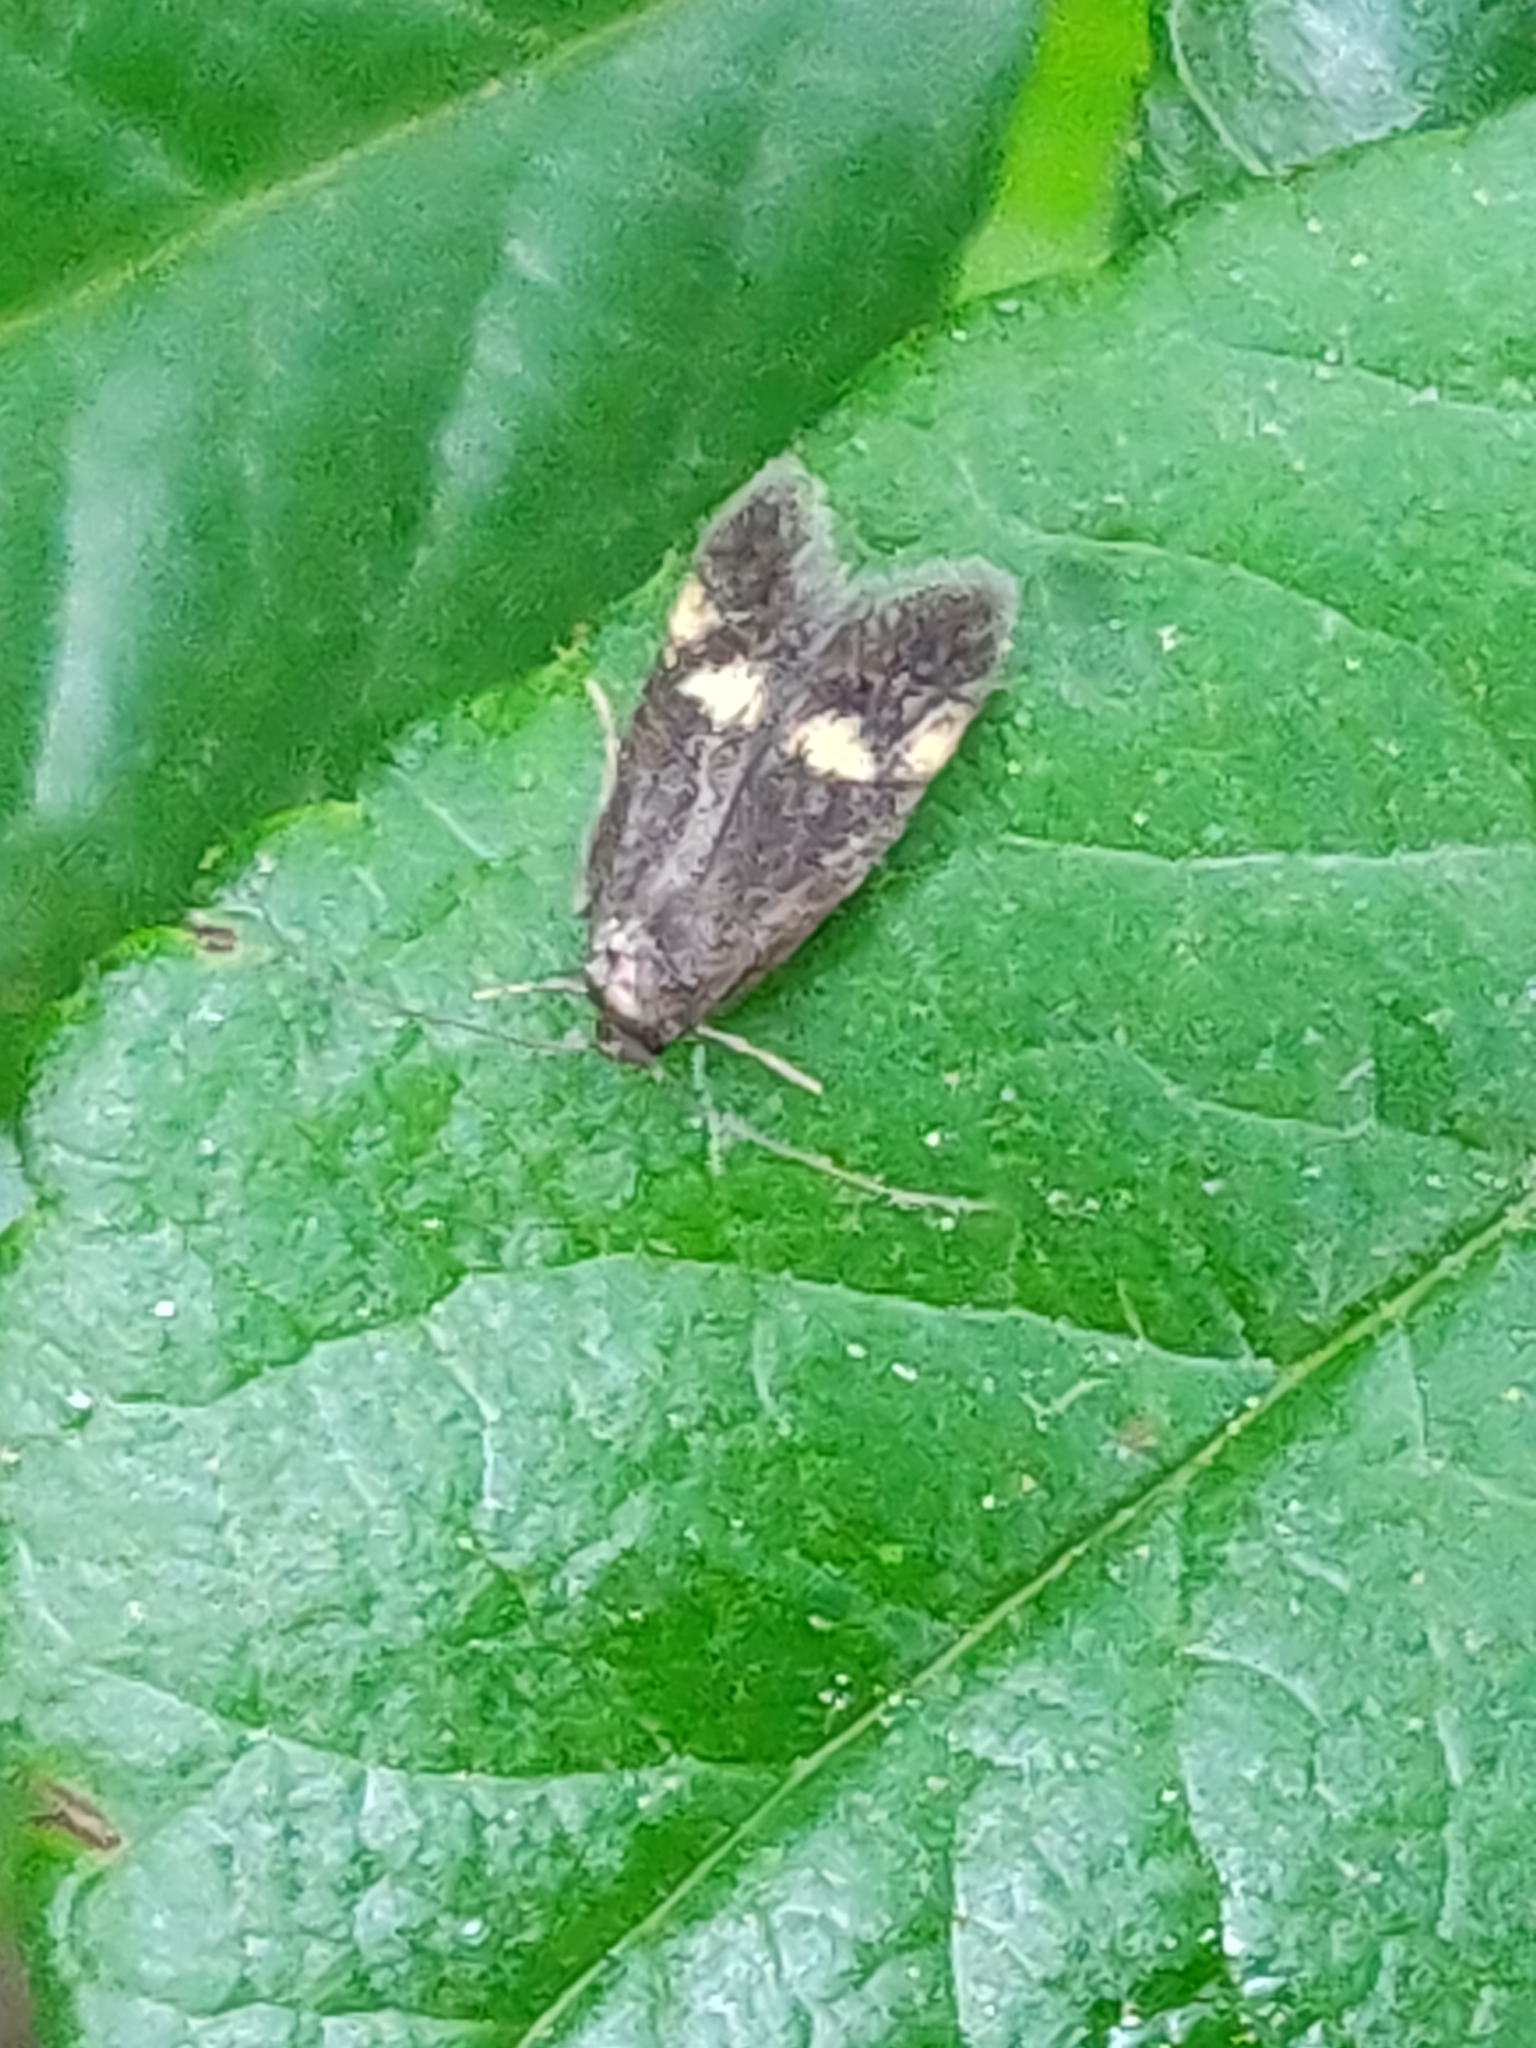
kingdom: Animalia
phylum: Arthropoda
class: Insecta
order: Lepidoptera
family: Oecophoridae
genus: Borkhausenia
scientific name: Borkhausenia minutella
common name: Thatch tubic
